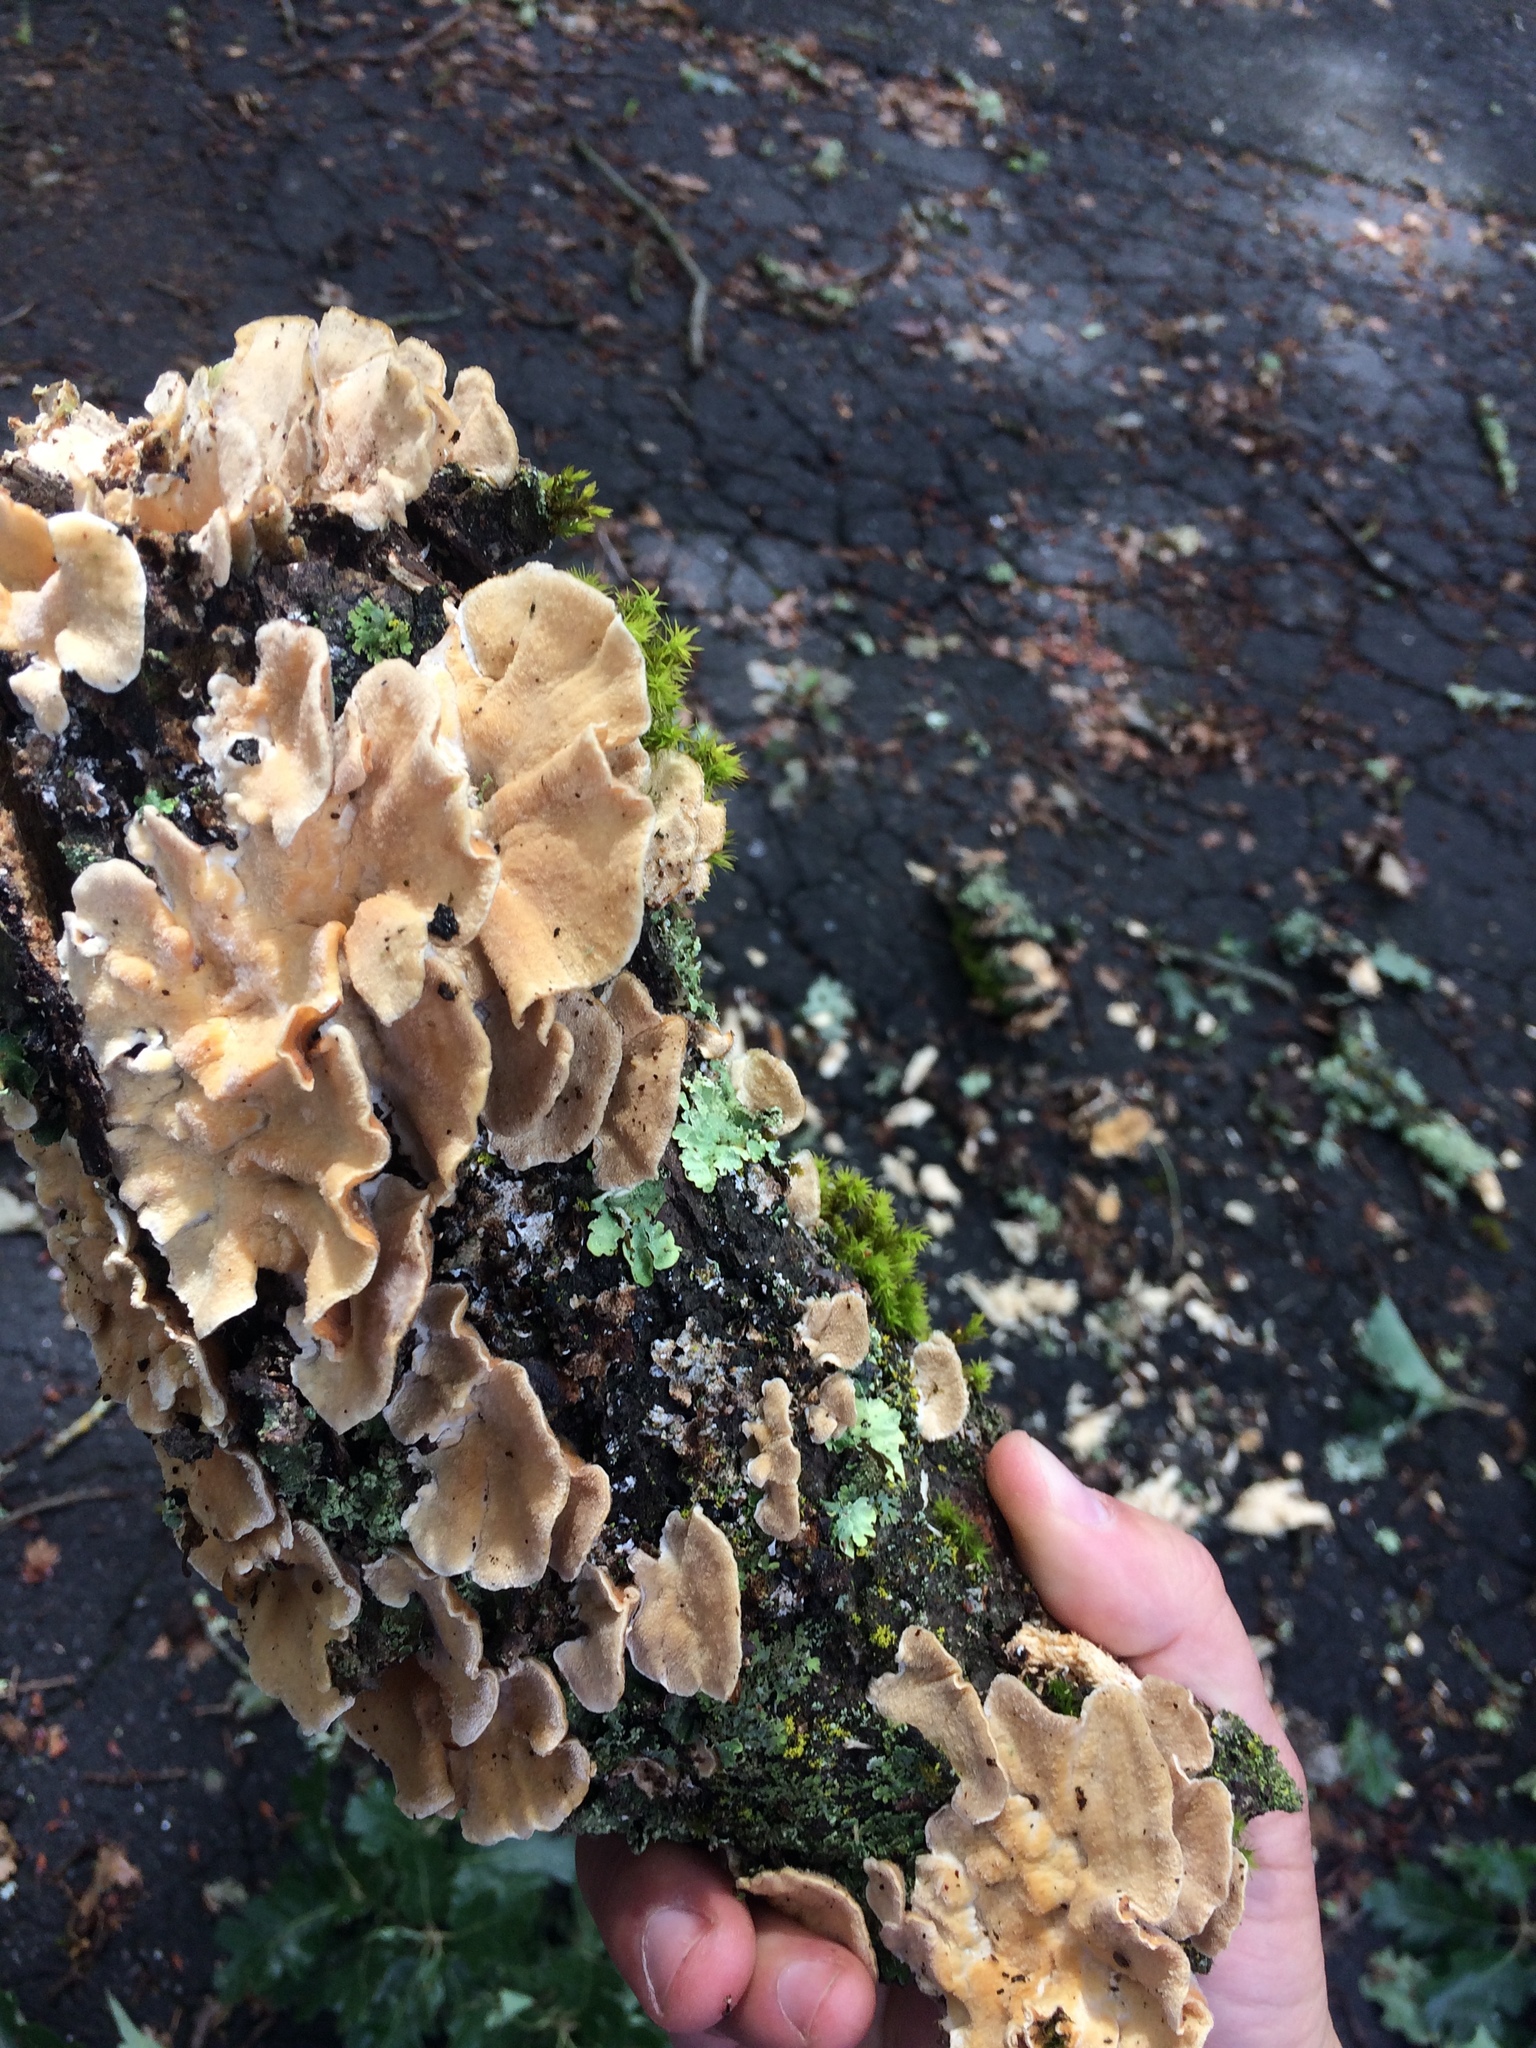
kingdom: Fungi
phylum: Basidiomycota
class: Agaricomycetes
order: Polyporales
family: Polyporaceae
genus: Trametes
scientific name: Trametes versicolor
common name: Turkeytail
